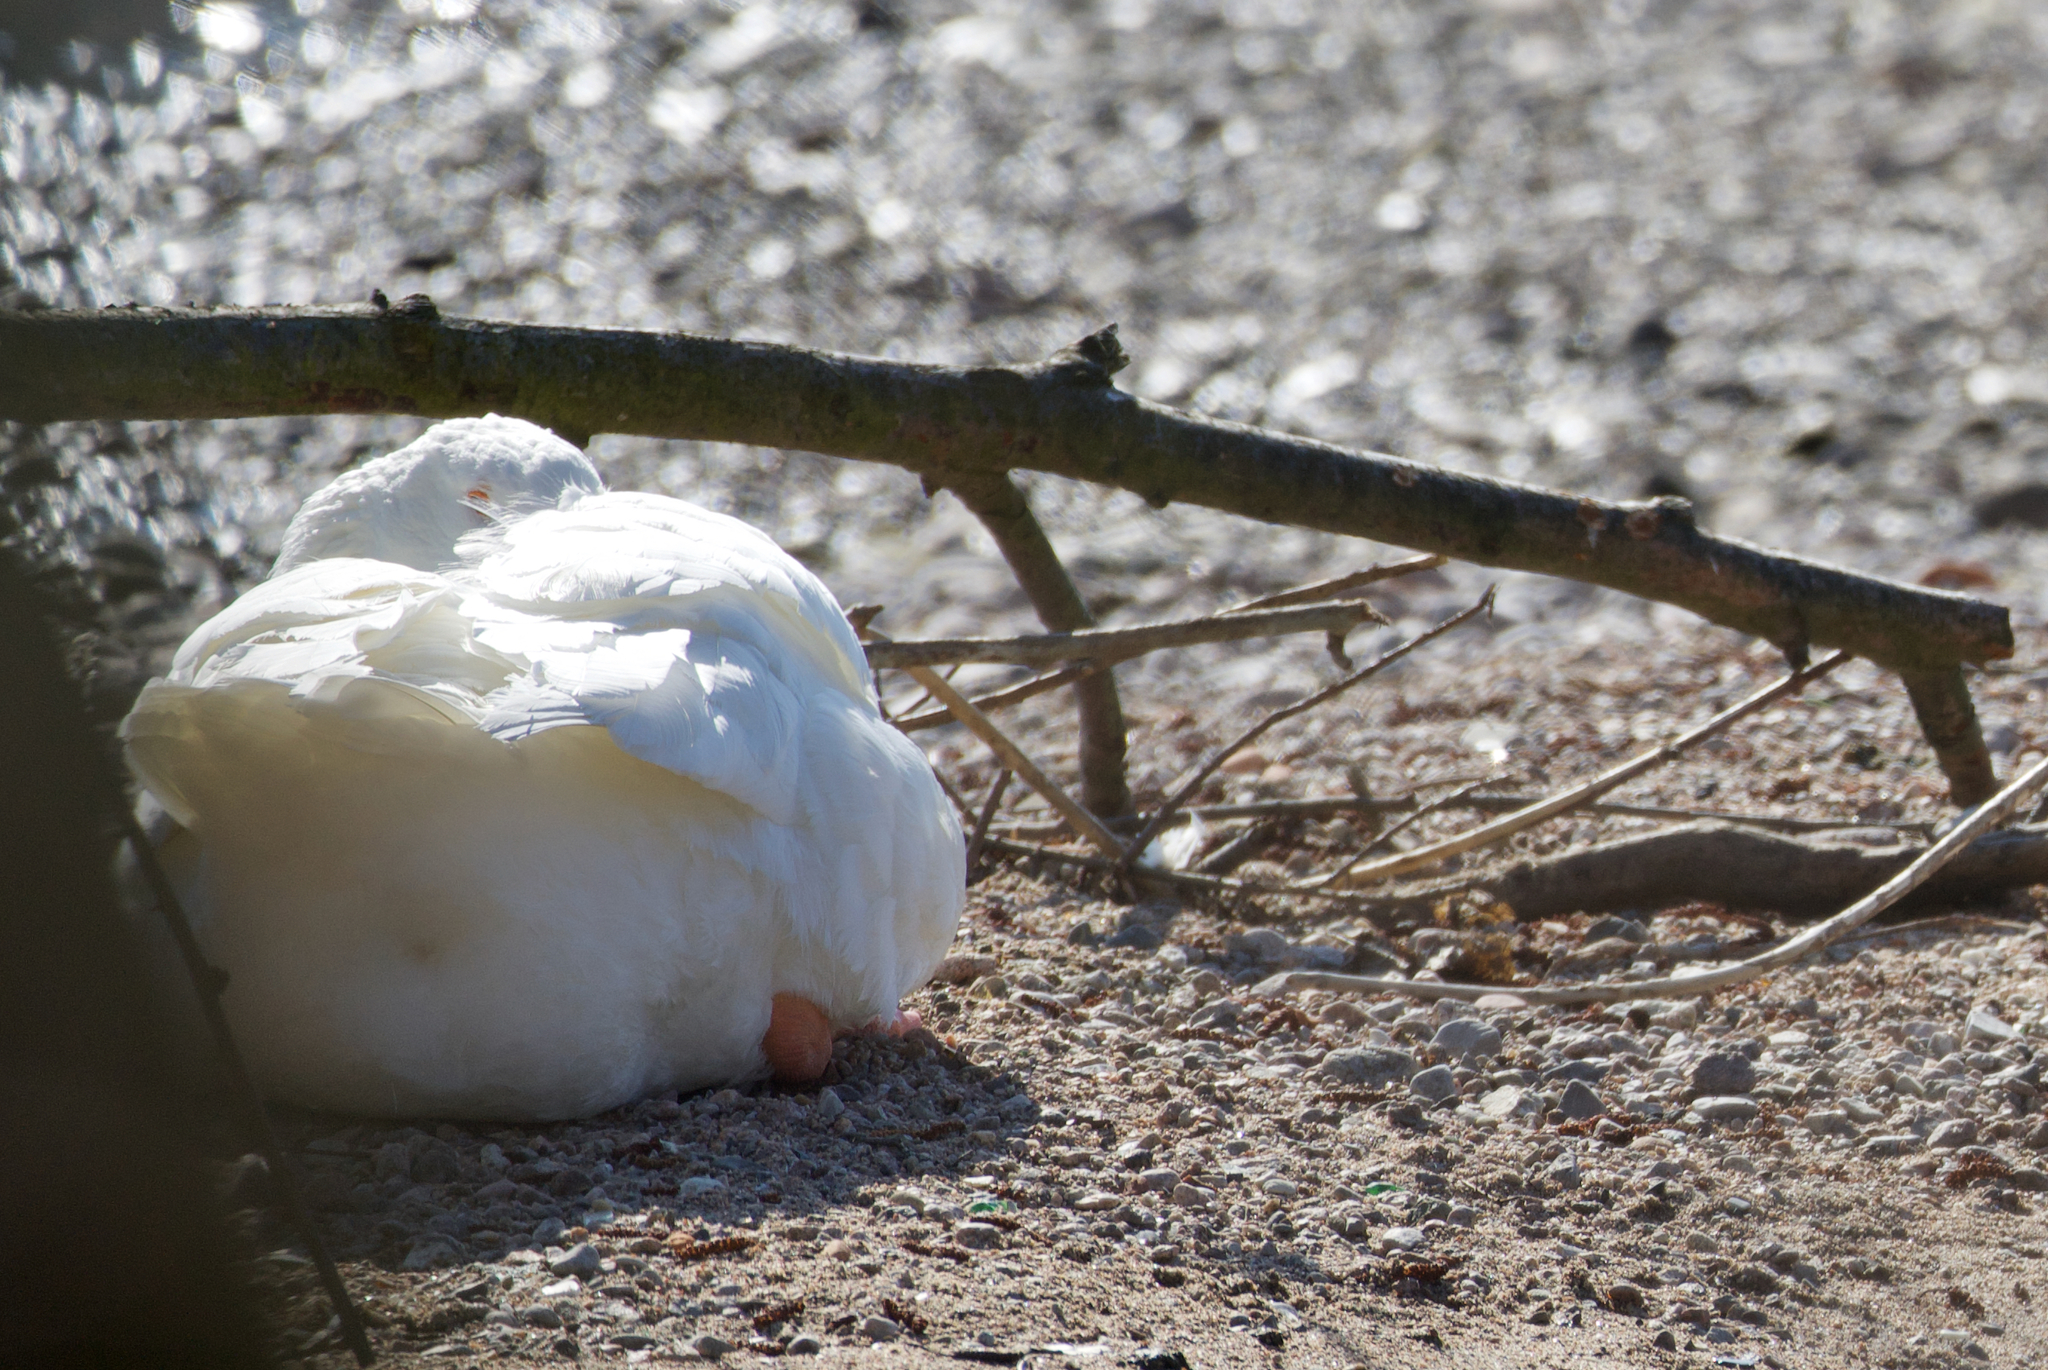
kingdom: Animalia
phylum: Chordata
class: Aves
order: Anseriformes
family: Anatidae
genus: Anser
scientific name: Anser anser
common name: Greylag goose
